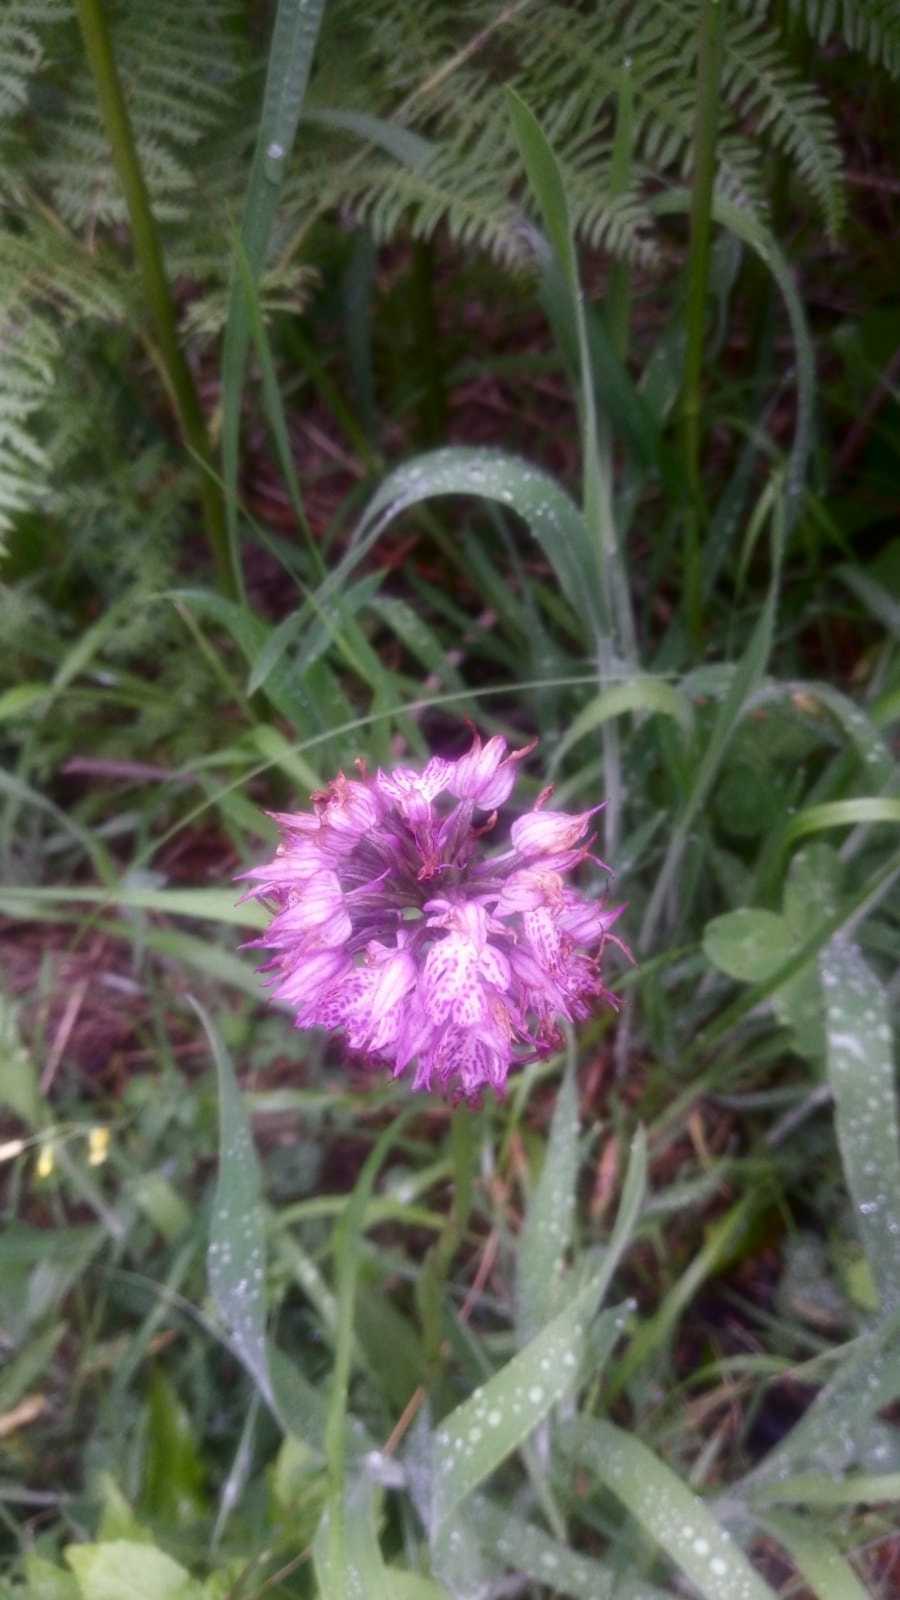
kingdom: Plantae
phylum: Tracheophyta
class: Liliopsida
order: Asparagales
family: Orchidaceae
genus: Neotinea
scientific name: Neotinea tridentata
